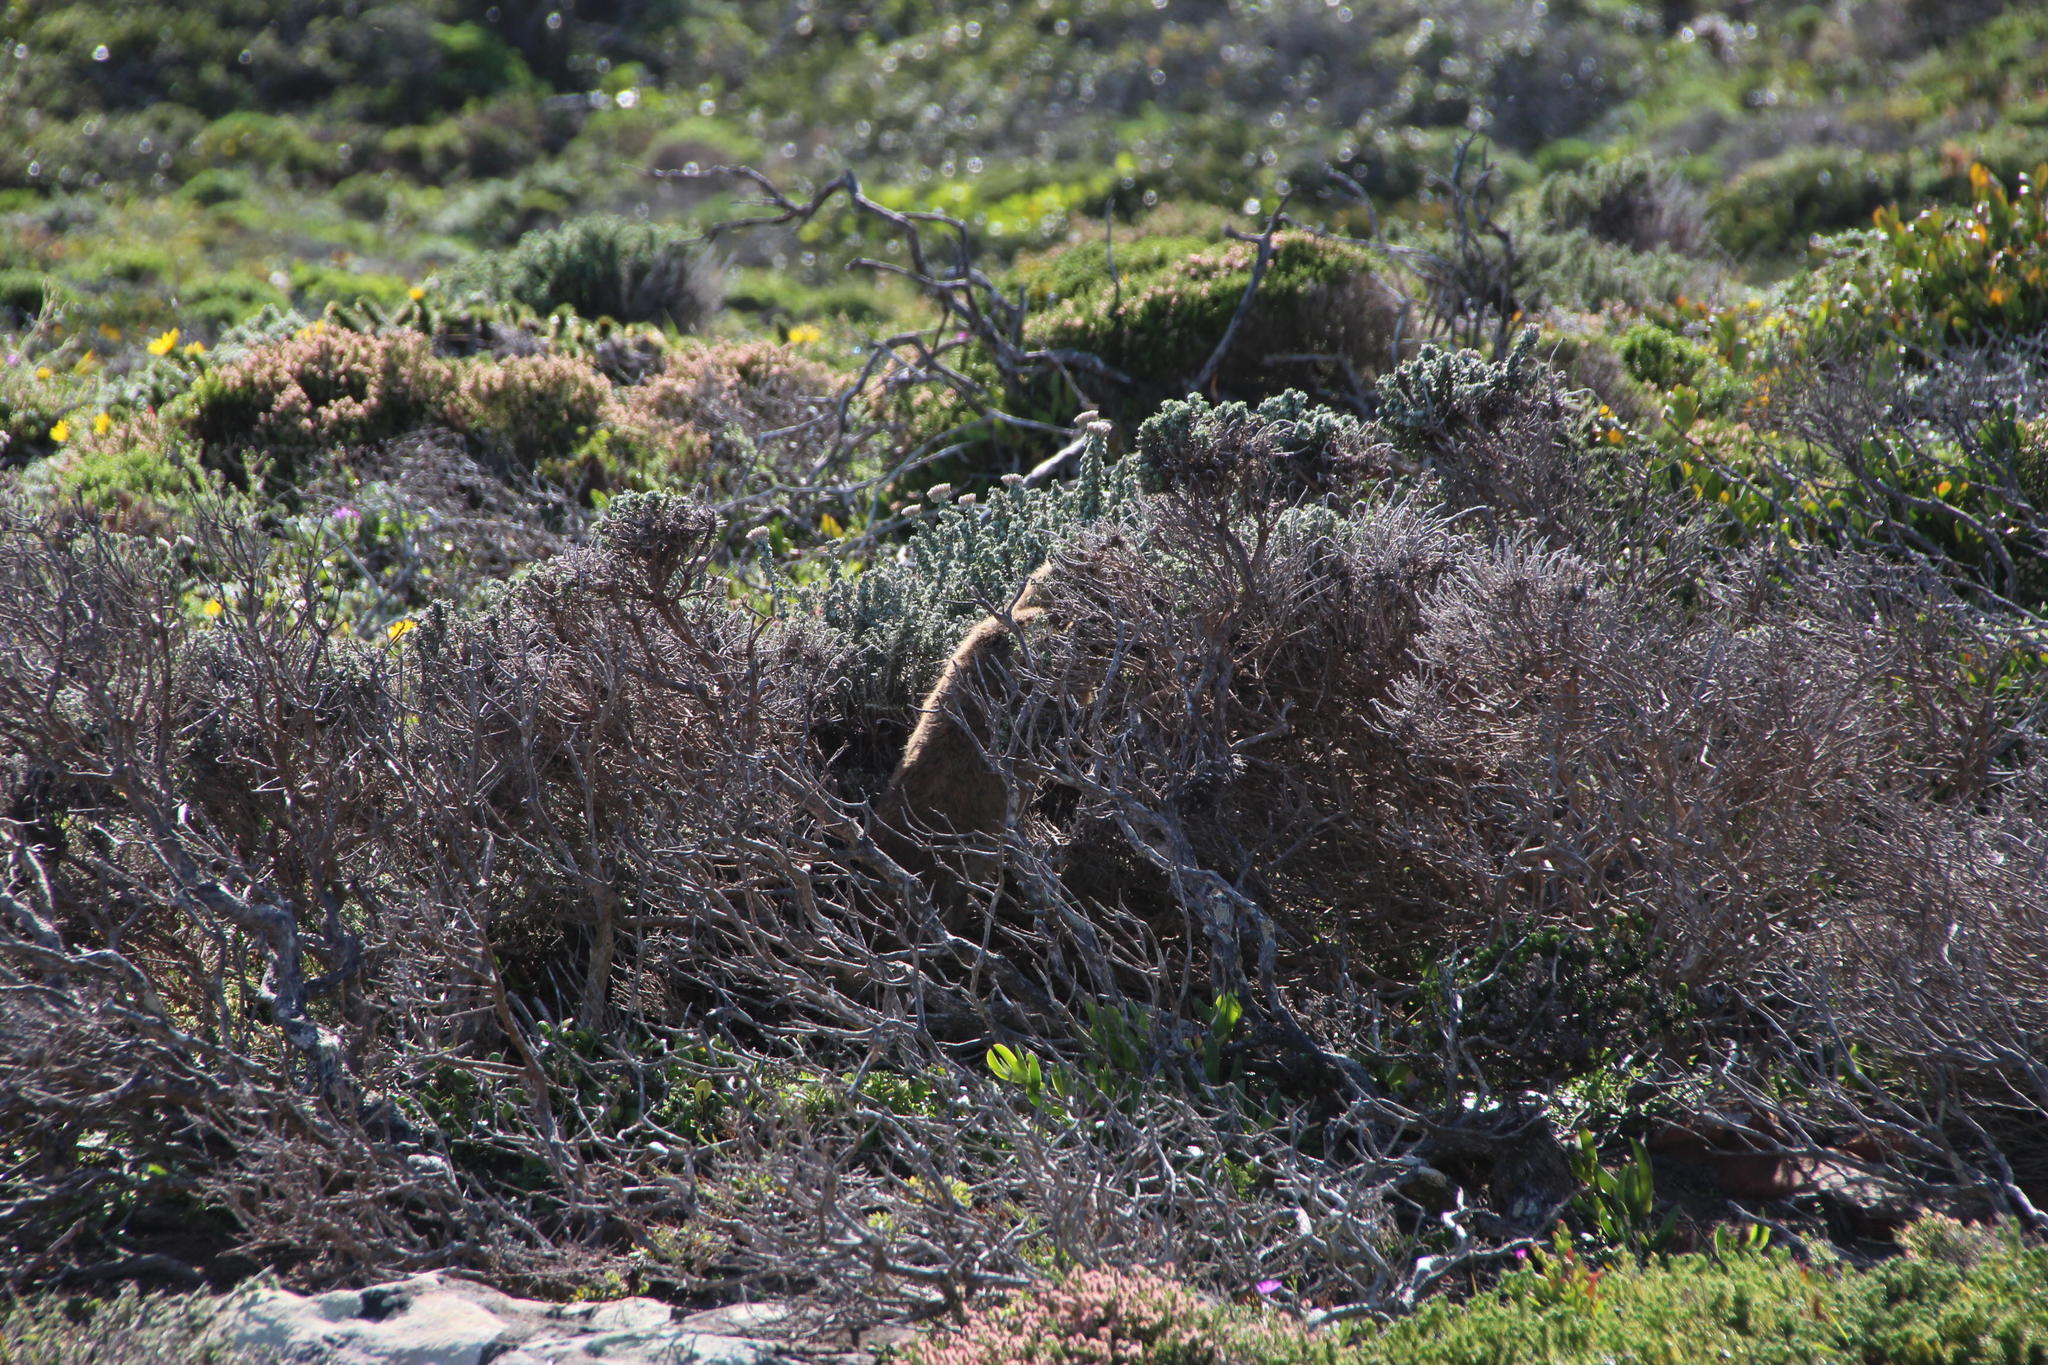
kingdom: Animalia
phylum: Chordata
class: Mammalia
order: Hyracoidea
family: Procaviidae
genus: Procavia
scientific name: Procavia capensis
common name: Rock hyrax
